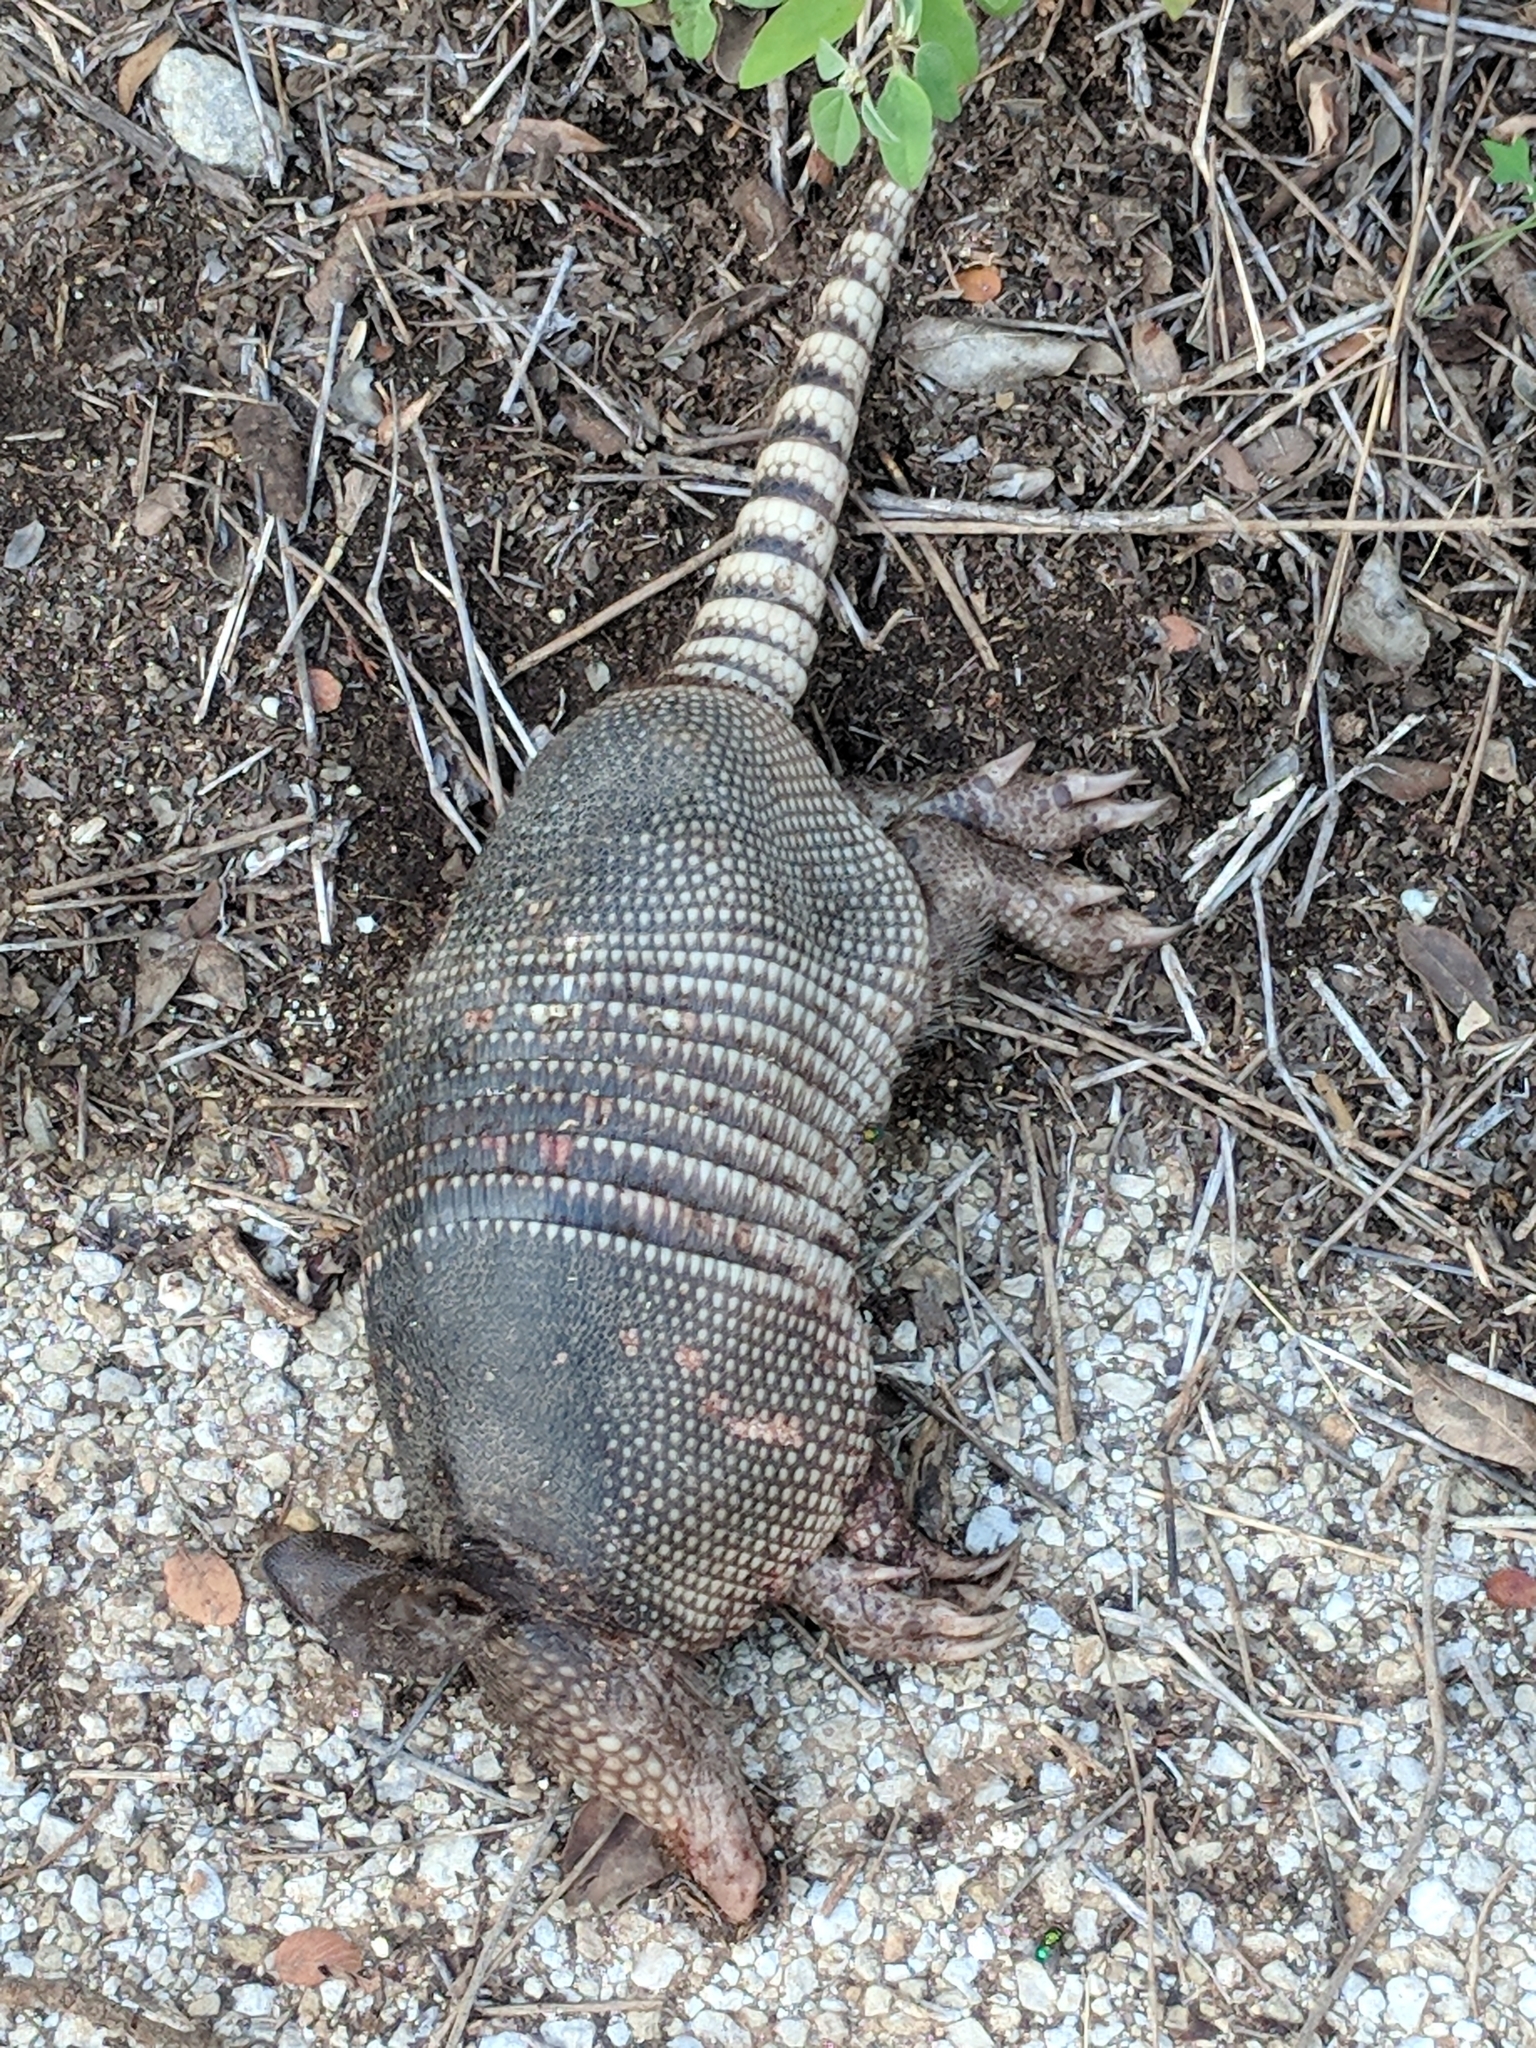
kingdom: Animalia
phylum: Chordata
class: Mammalia
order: Cingulata
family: Dasypodidae
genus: Dasypus
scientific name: Dasypus novemcinctus
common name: Nine-banded armadillo
